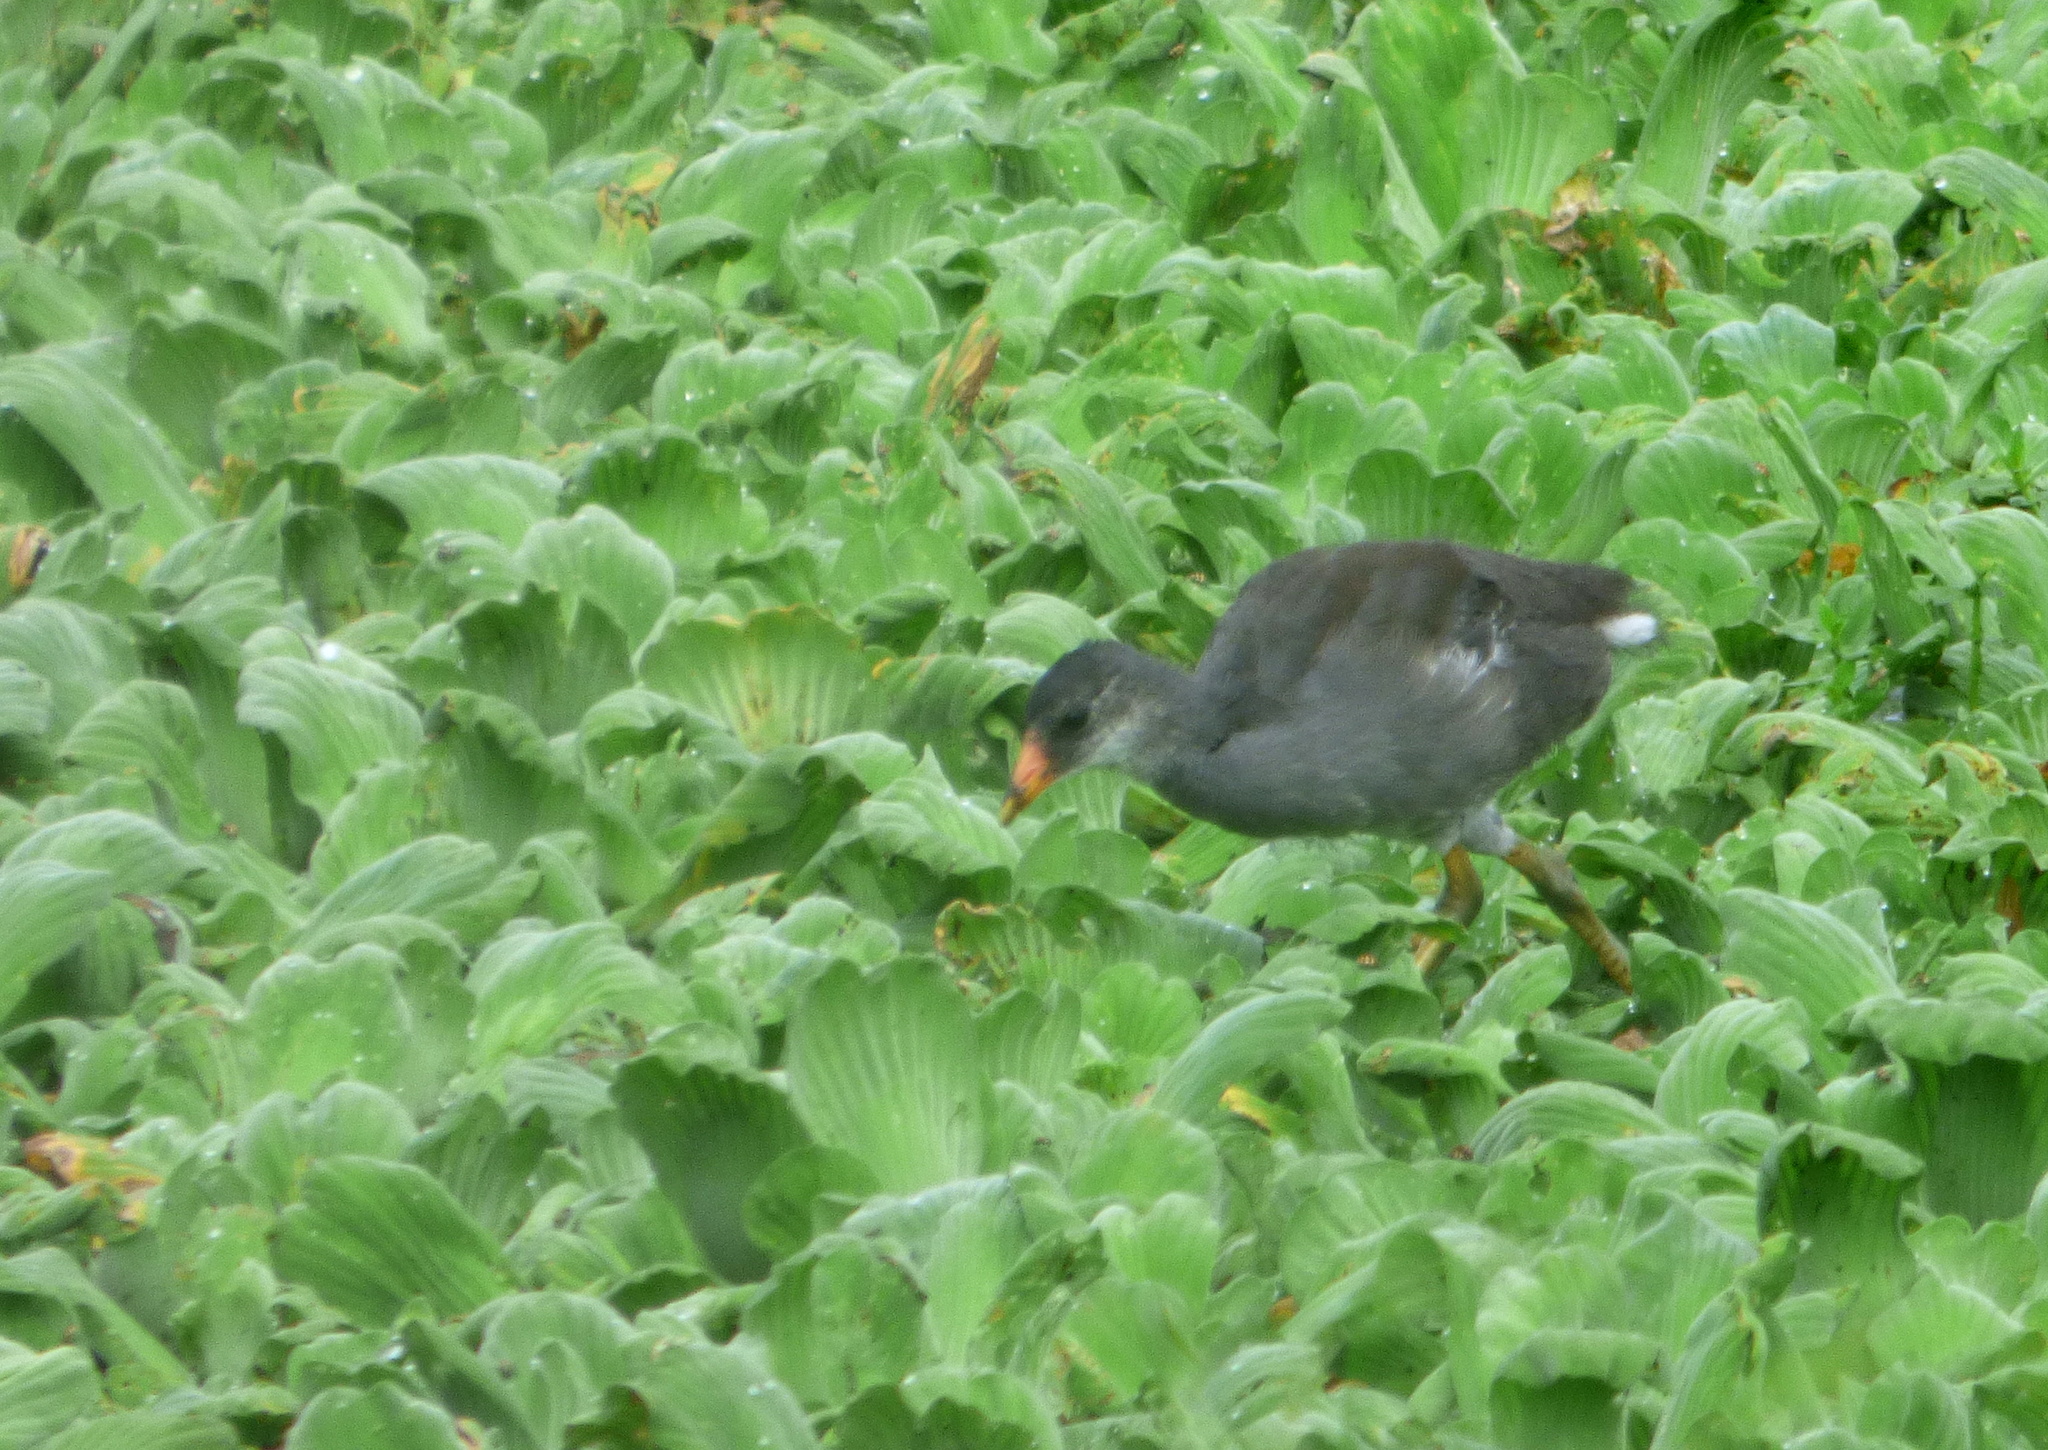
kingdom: Animalia
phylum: Chordata
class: Aves
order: Gruiformes
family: Rallidae
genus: Gallinula
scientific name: Gallinula chloropus
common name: Common moorhen
